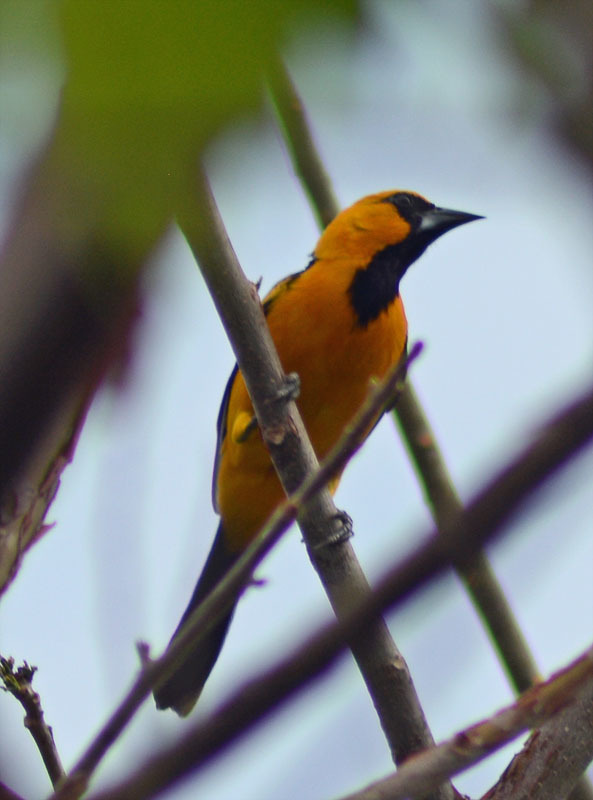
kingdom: Animalia
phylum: Chordata
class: Aves
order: Passeriformes
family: Icteridae
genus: Icterus
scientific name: Icterus gularis
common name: Altamira oriole
